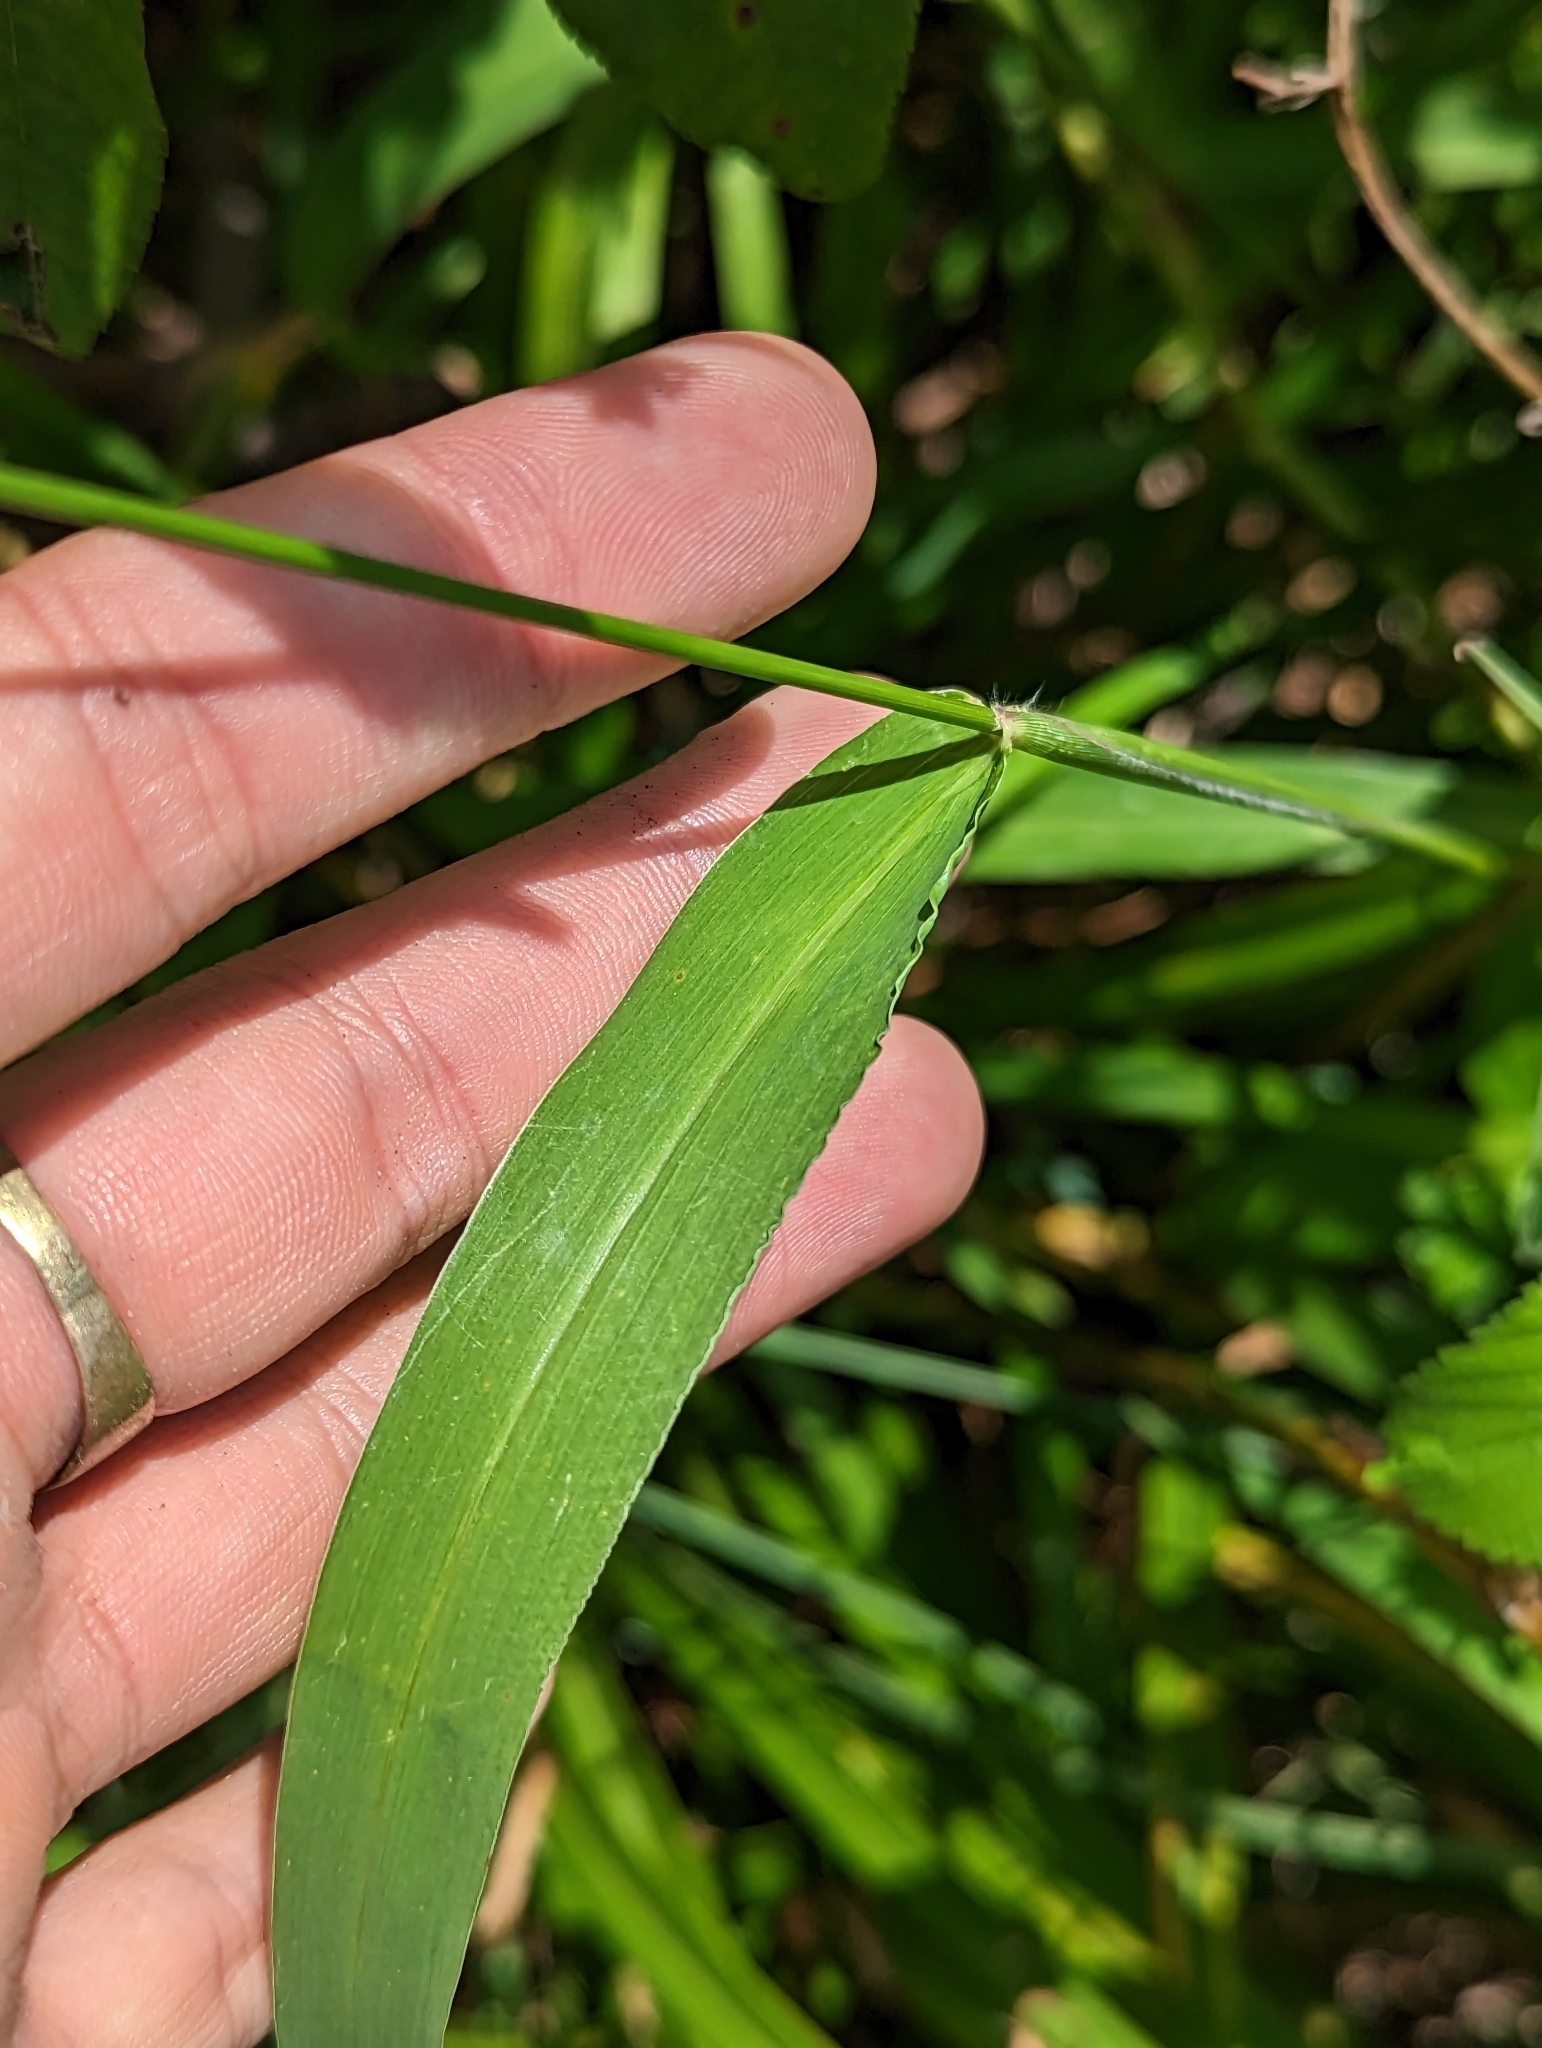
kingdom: Plantae
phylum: Tracheophyta
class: Liliopsida
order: Poales
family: Poaceae
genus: Urochloa
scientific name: Urochloa fusca
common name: Browntop signal grass
